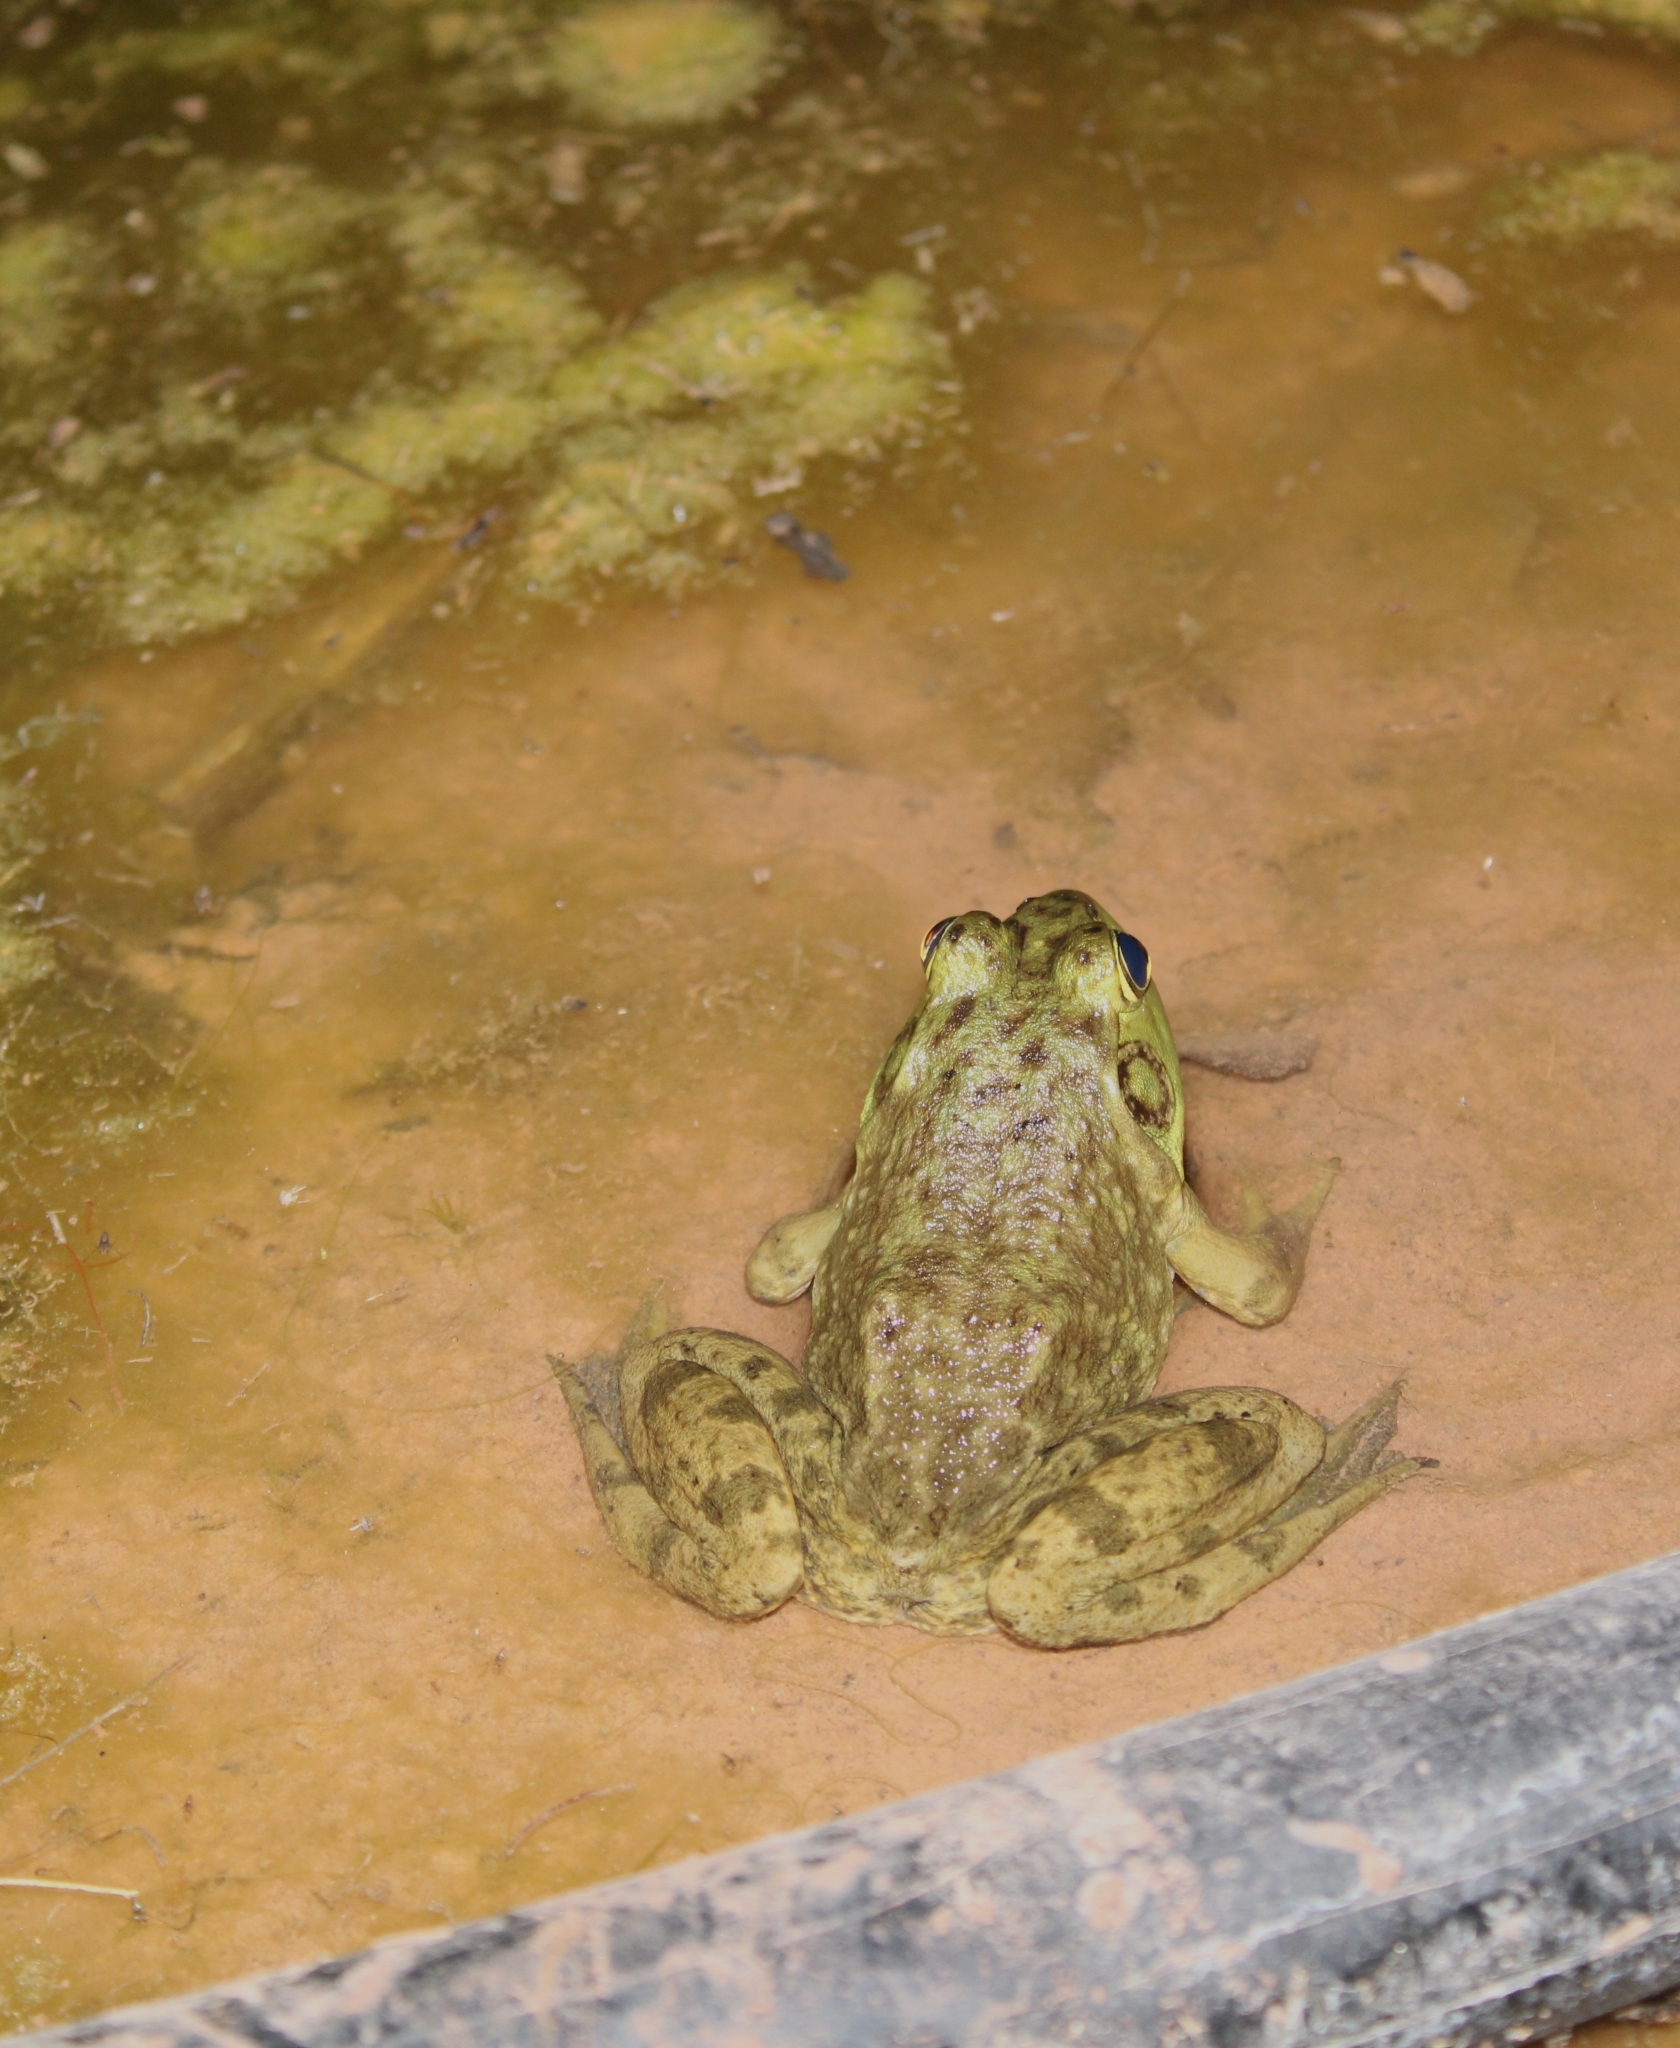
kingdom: Animalia
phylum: Chordata
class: Amphibia
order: Anura
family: Ranidae
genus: Lithobates
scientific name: Lithobates catesbeianus
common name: American bullfrog
